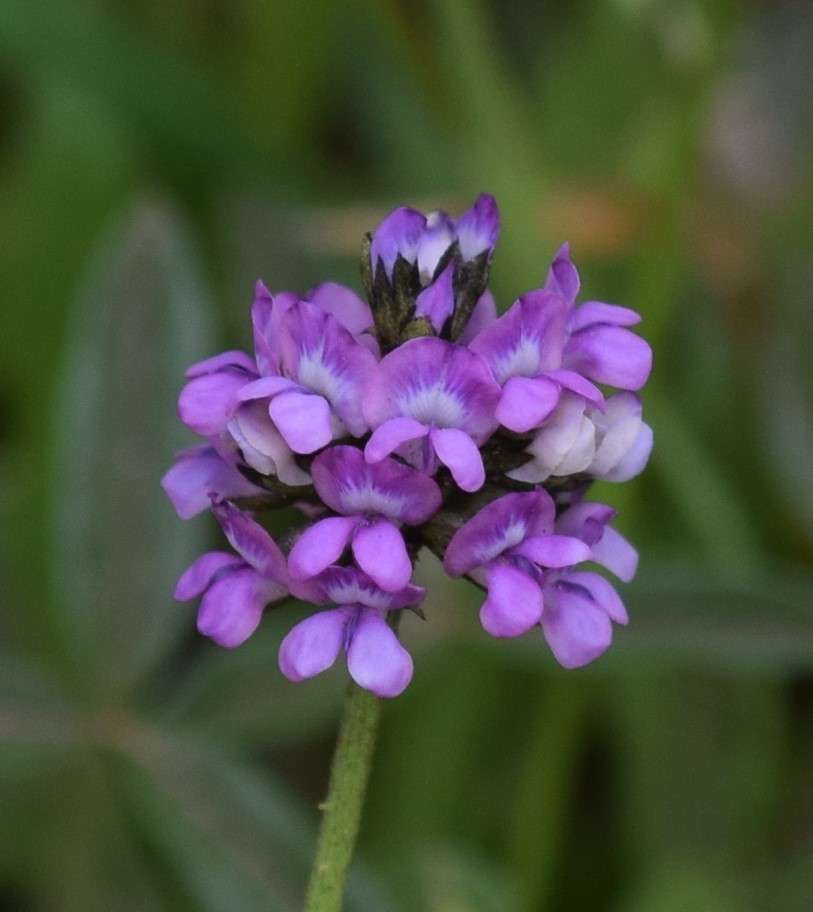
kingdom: Plantae
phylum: Tracheophyta
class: Magnoliopsida
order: Fabales
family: Fabaceae
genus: Cullen
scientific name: Cullen microcephalum
